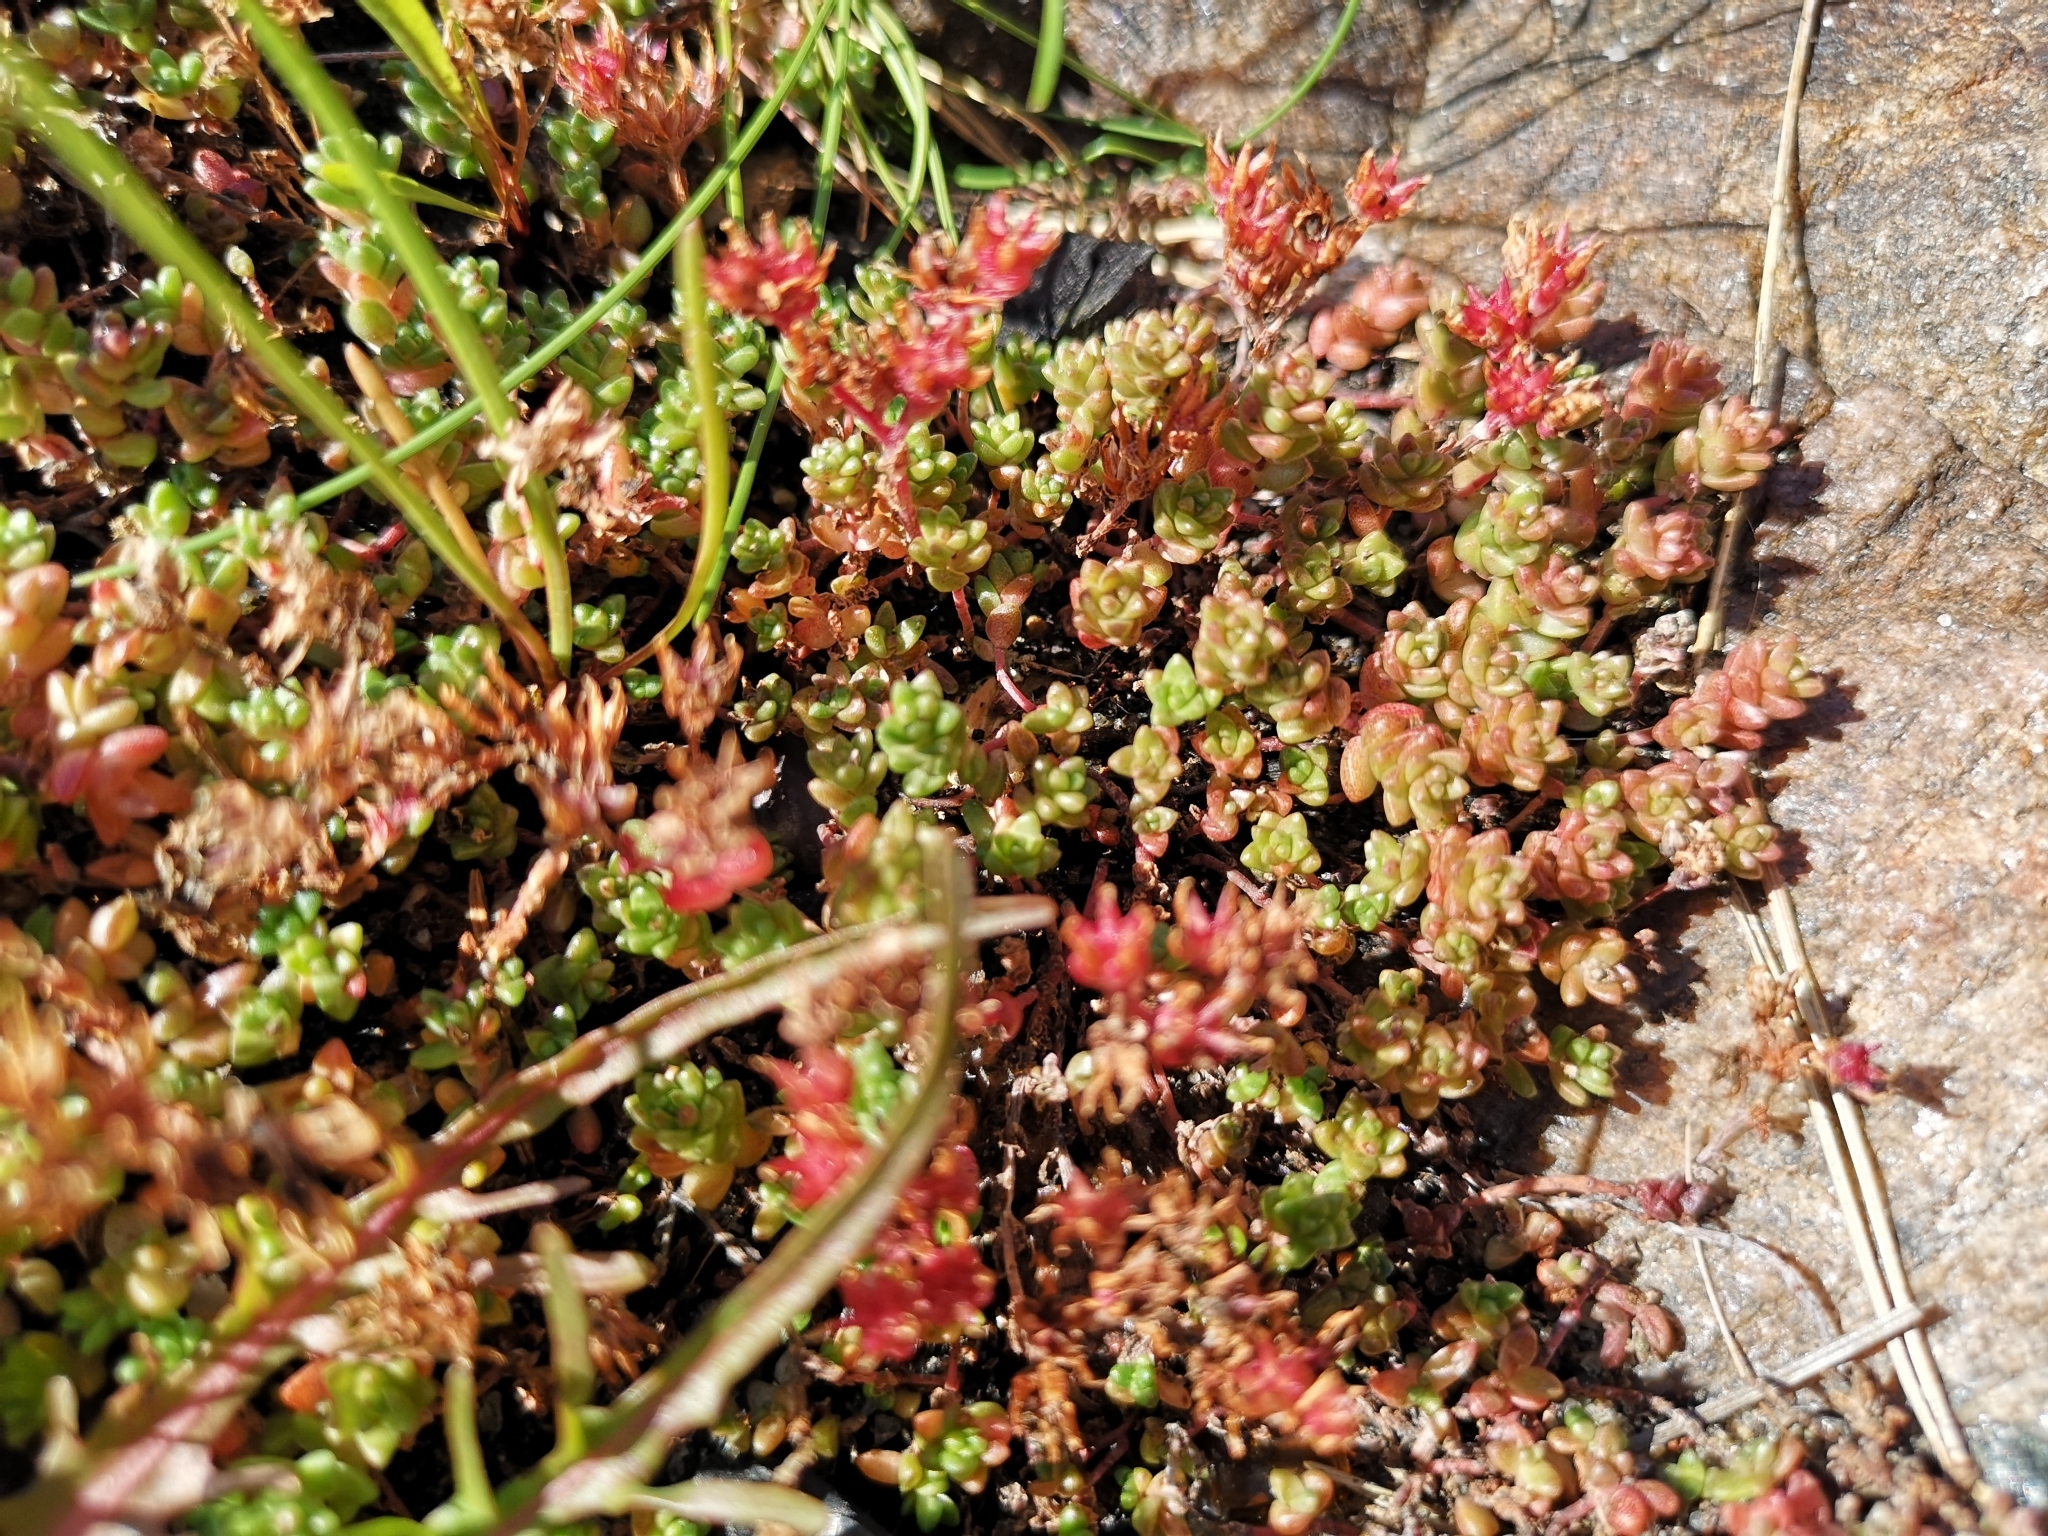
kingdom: Plantae
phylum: Tracheophyta
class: Magnoliopsida
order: Saxifragales
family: Crassulaceae
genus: Sedum
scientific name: Sedum anglicum
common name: English stonecrop
